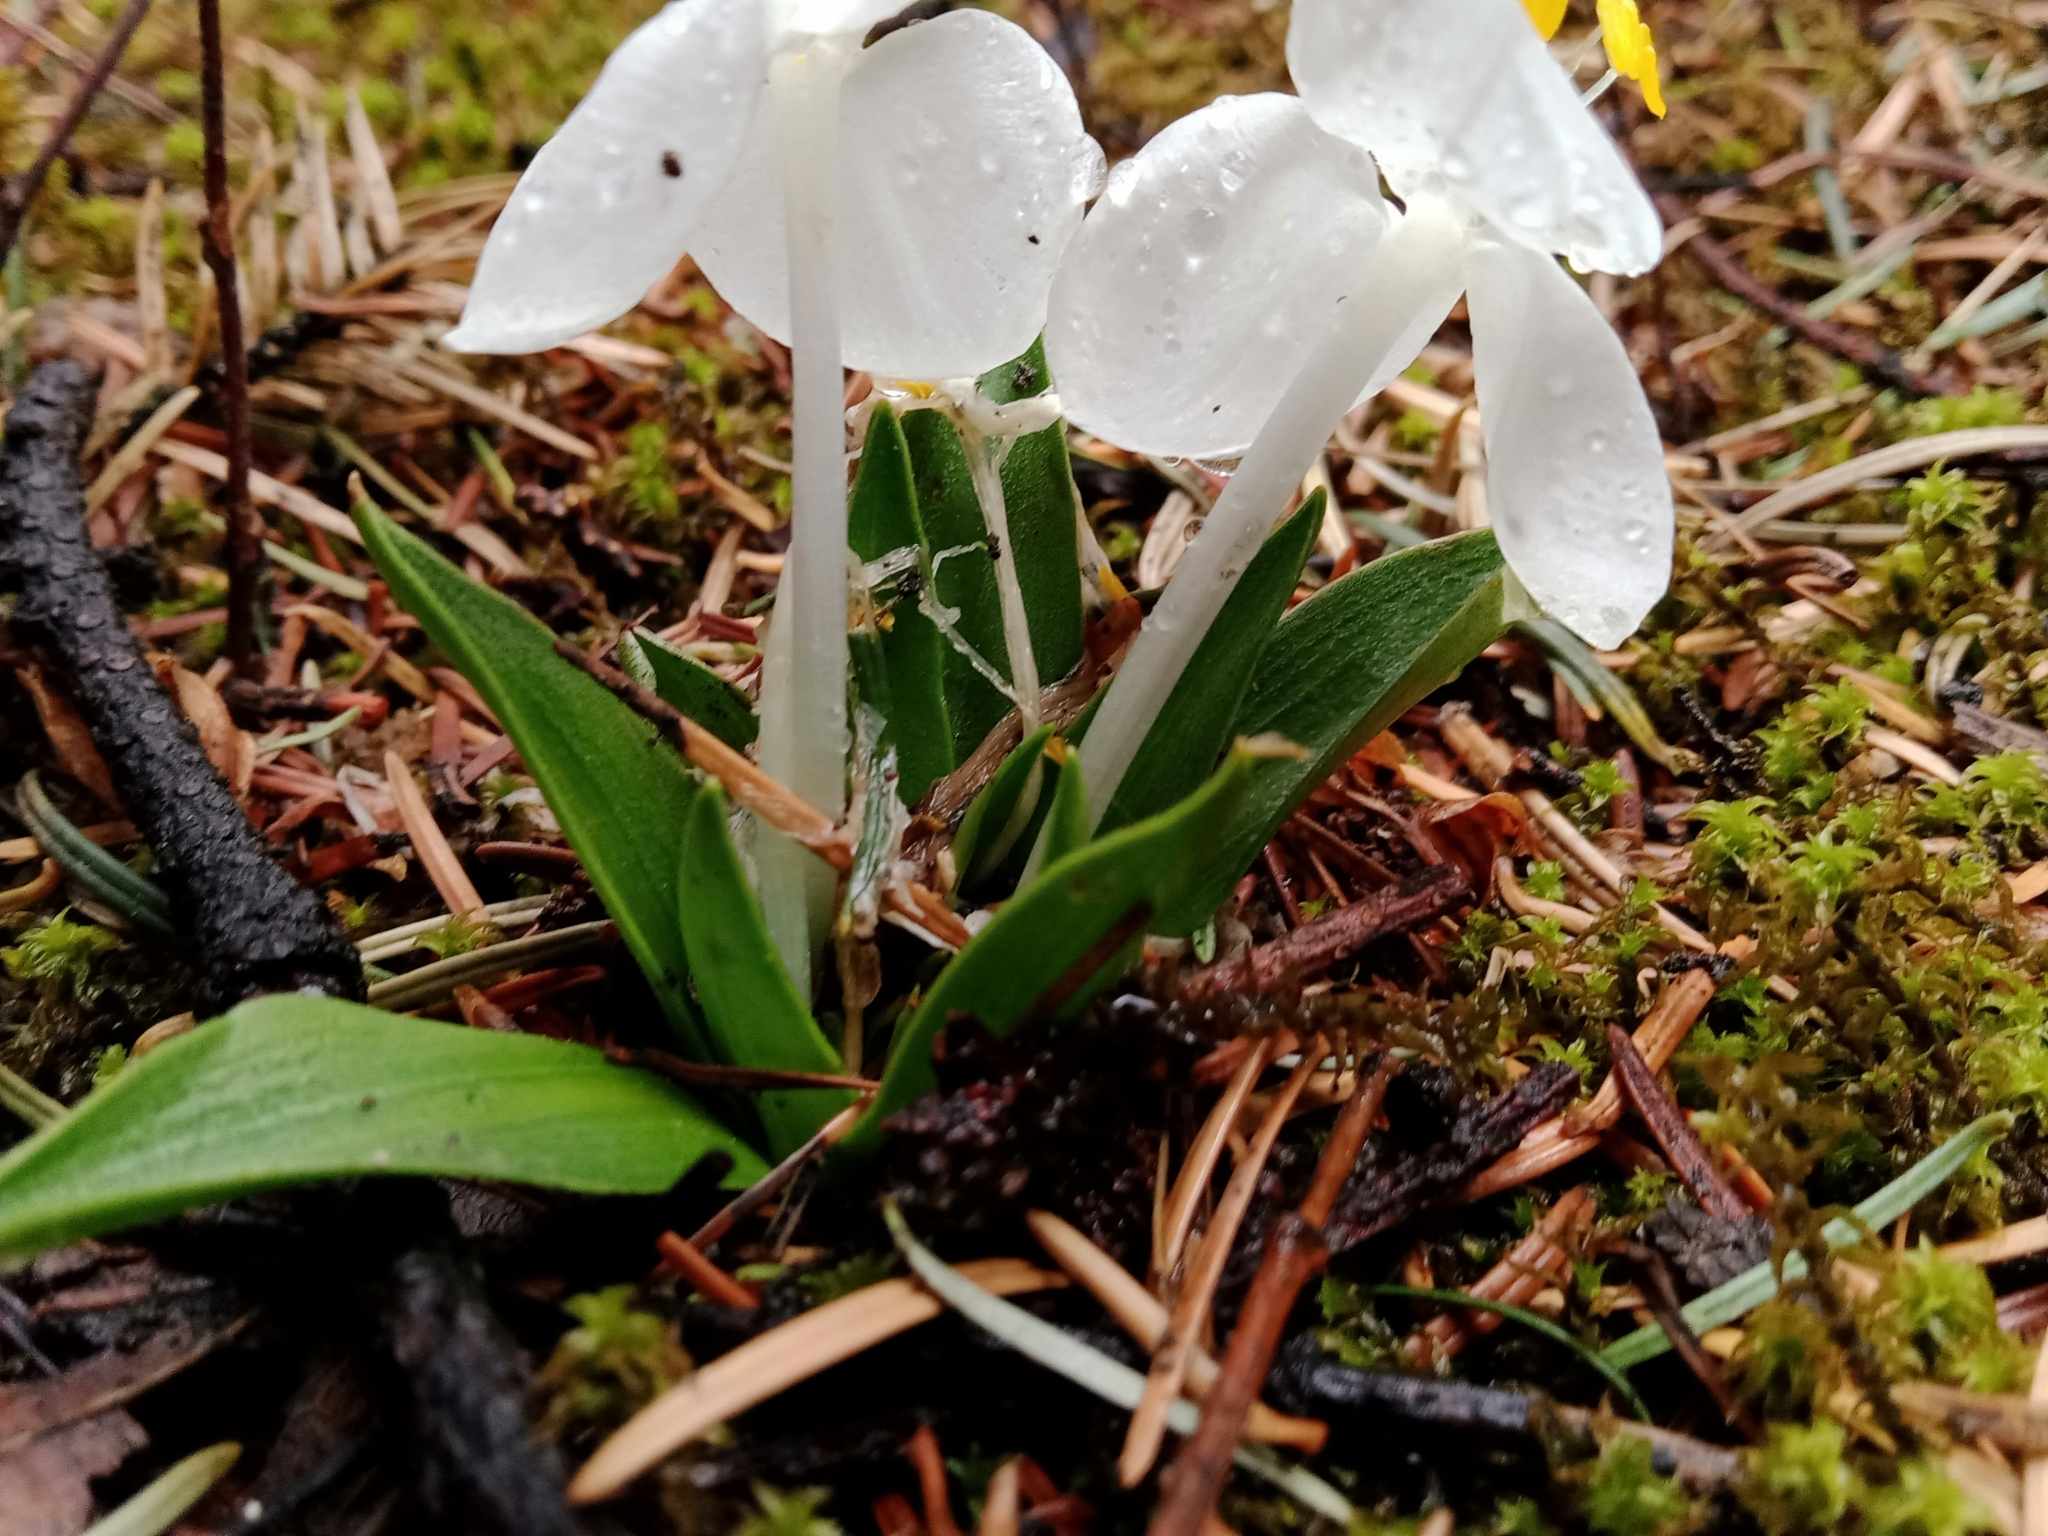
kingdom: Plantae
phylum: Tracheophyta
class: Liliopsida
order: Commelinales
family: Commelinaceae
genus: Weldenia
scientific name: Weldenia candida
